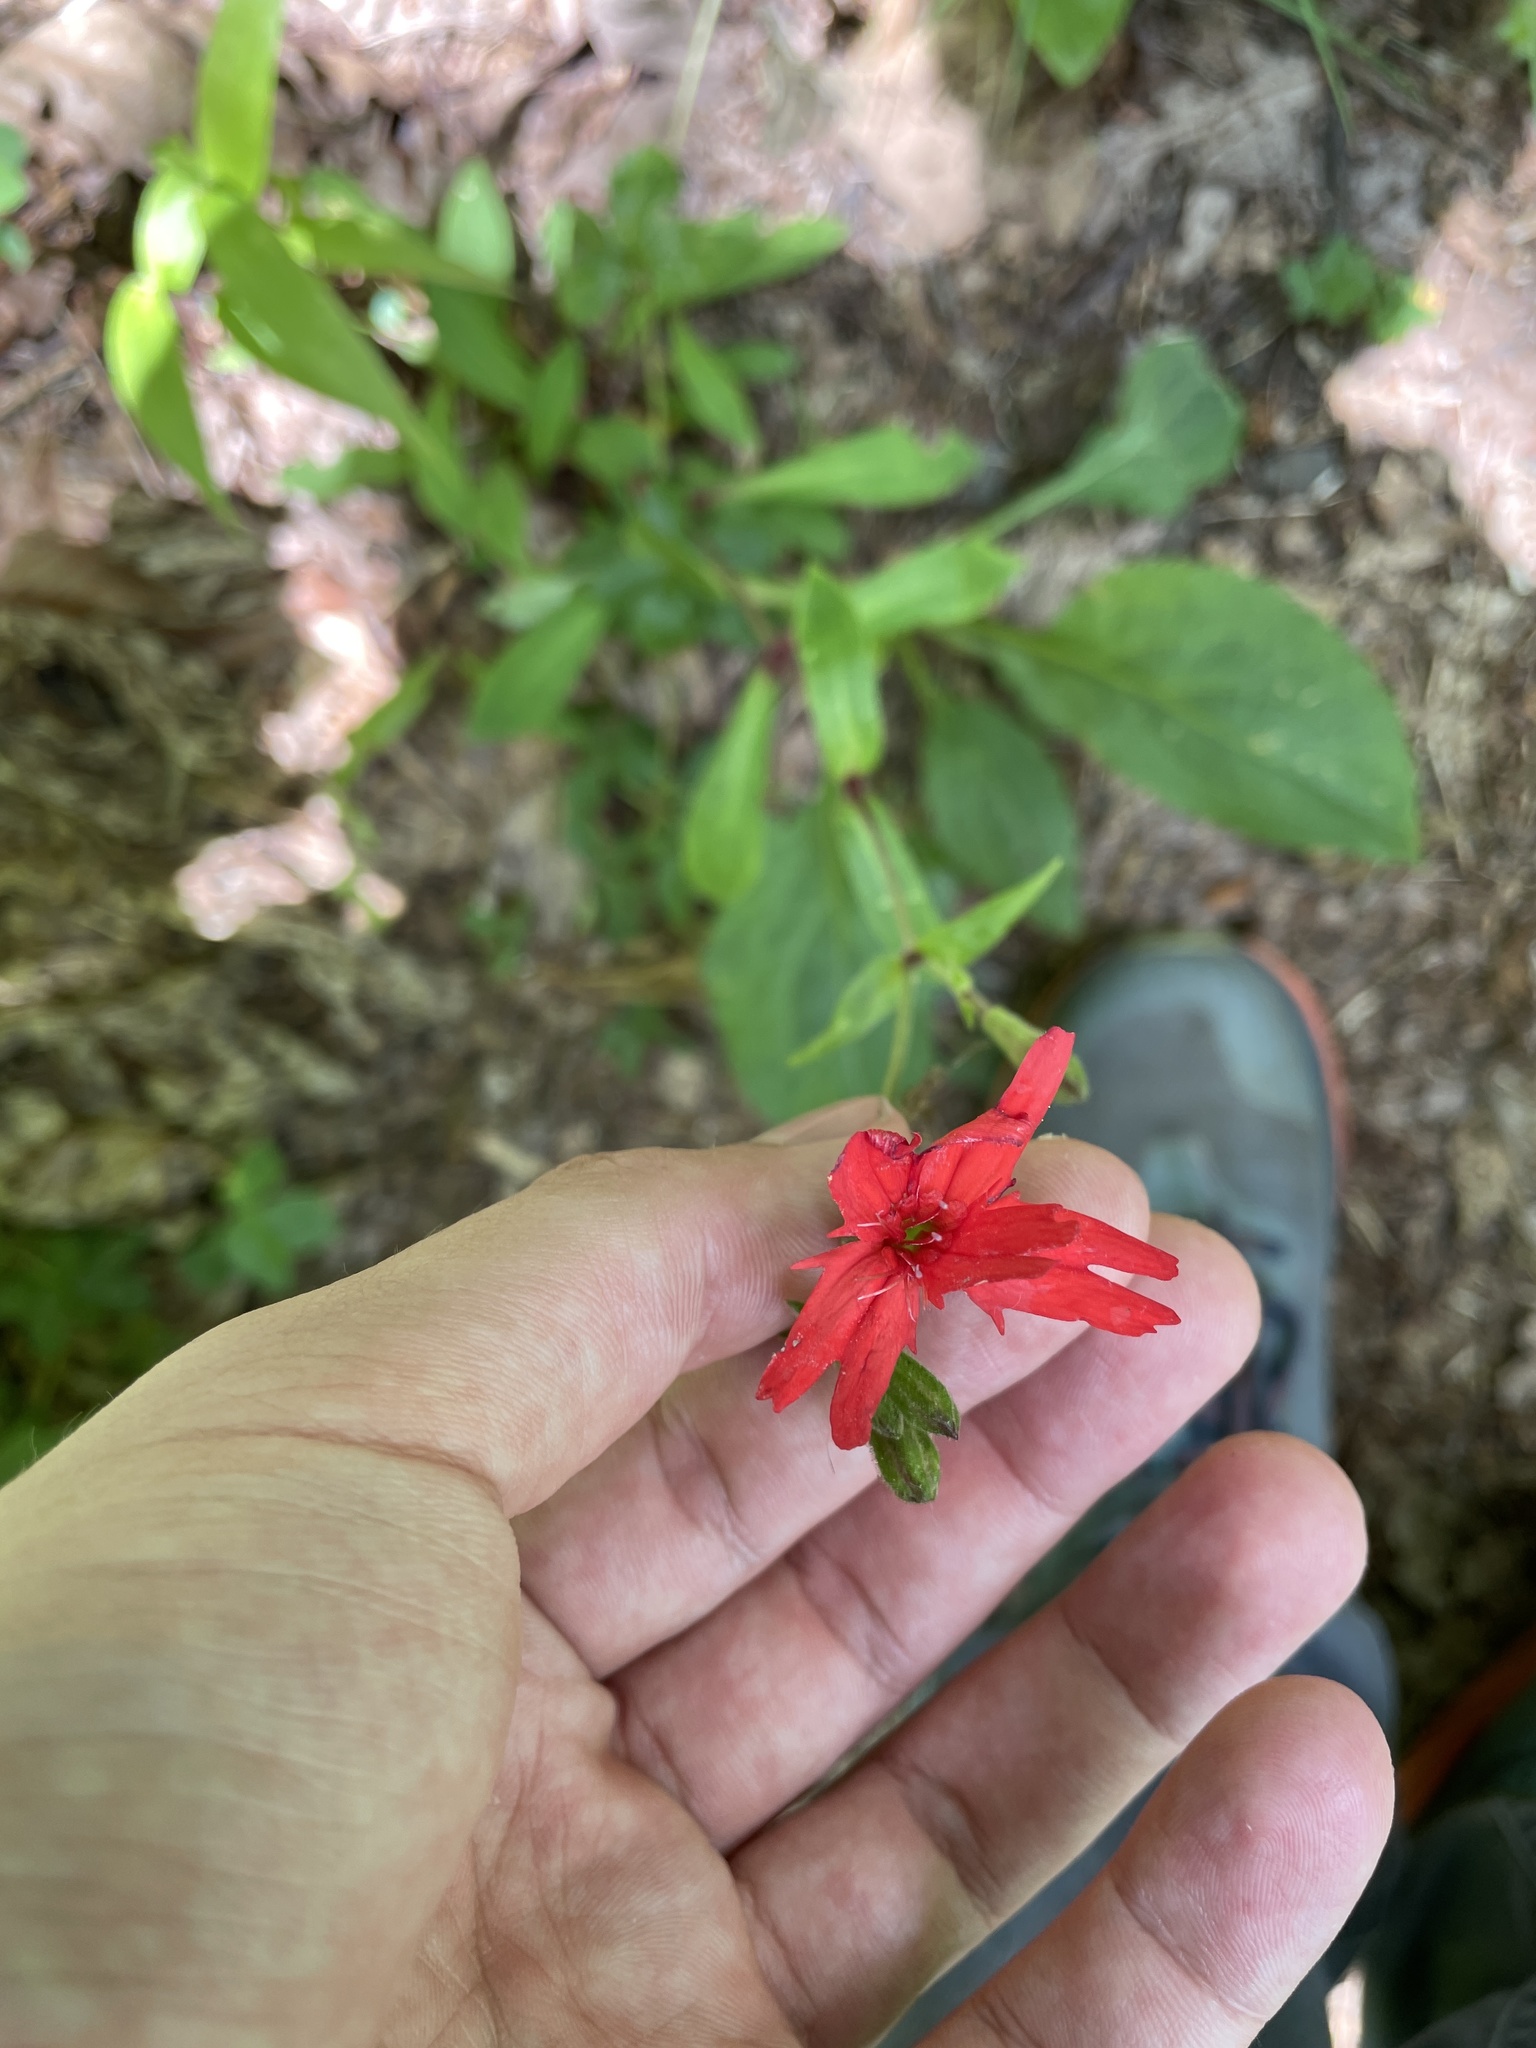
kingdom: Plantae
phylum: Tracheophyta
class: Magnoliopsida
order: Caryophyllales
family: Caryophyllaceae
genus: Silene
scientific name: Silene virginica
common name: Fire-pink
